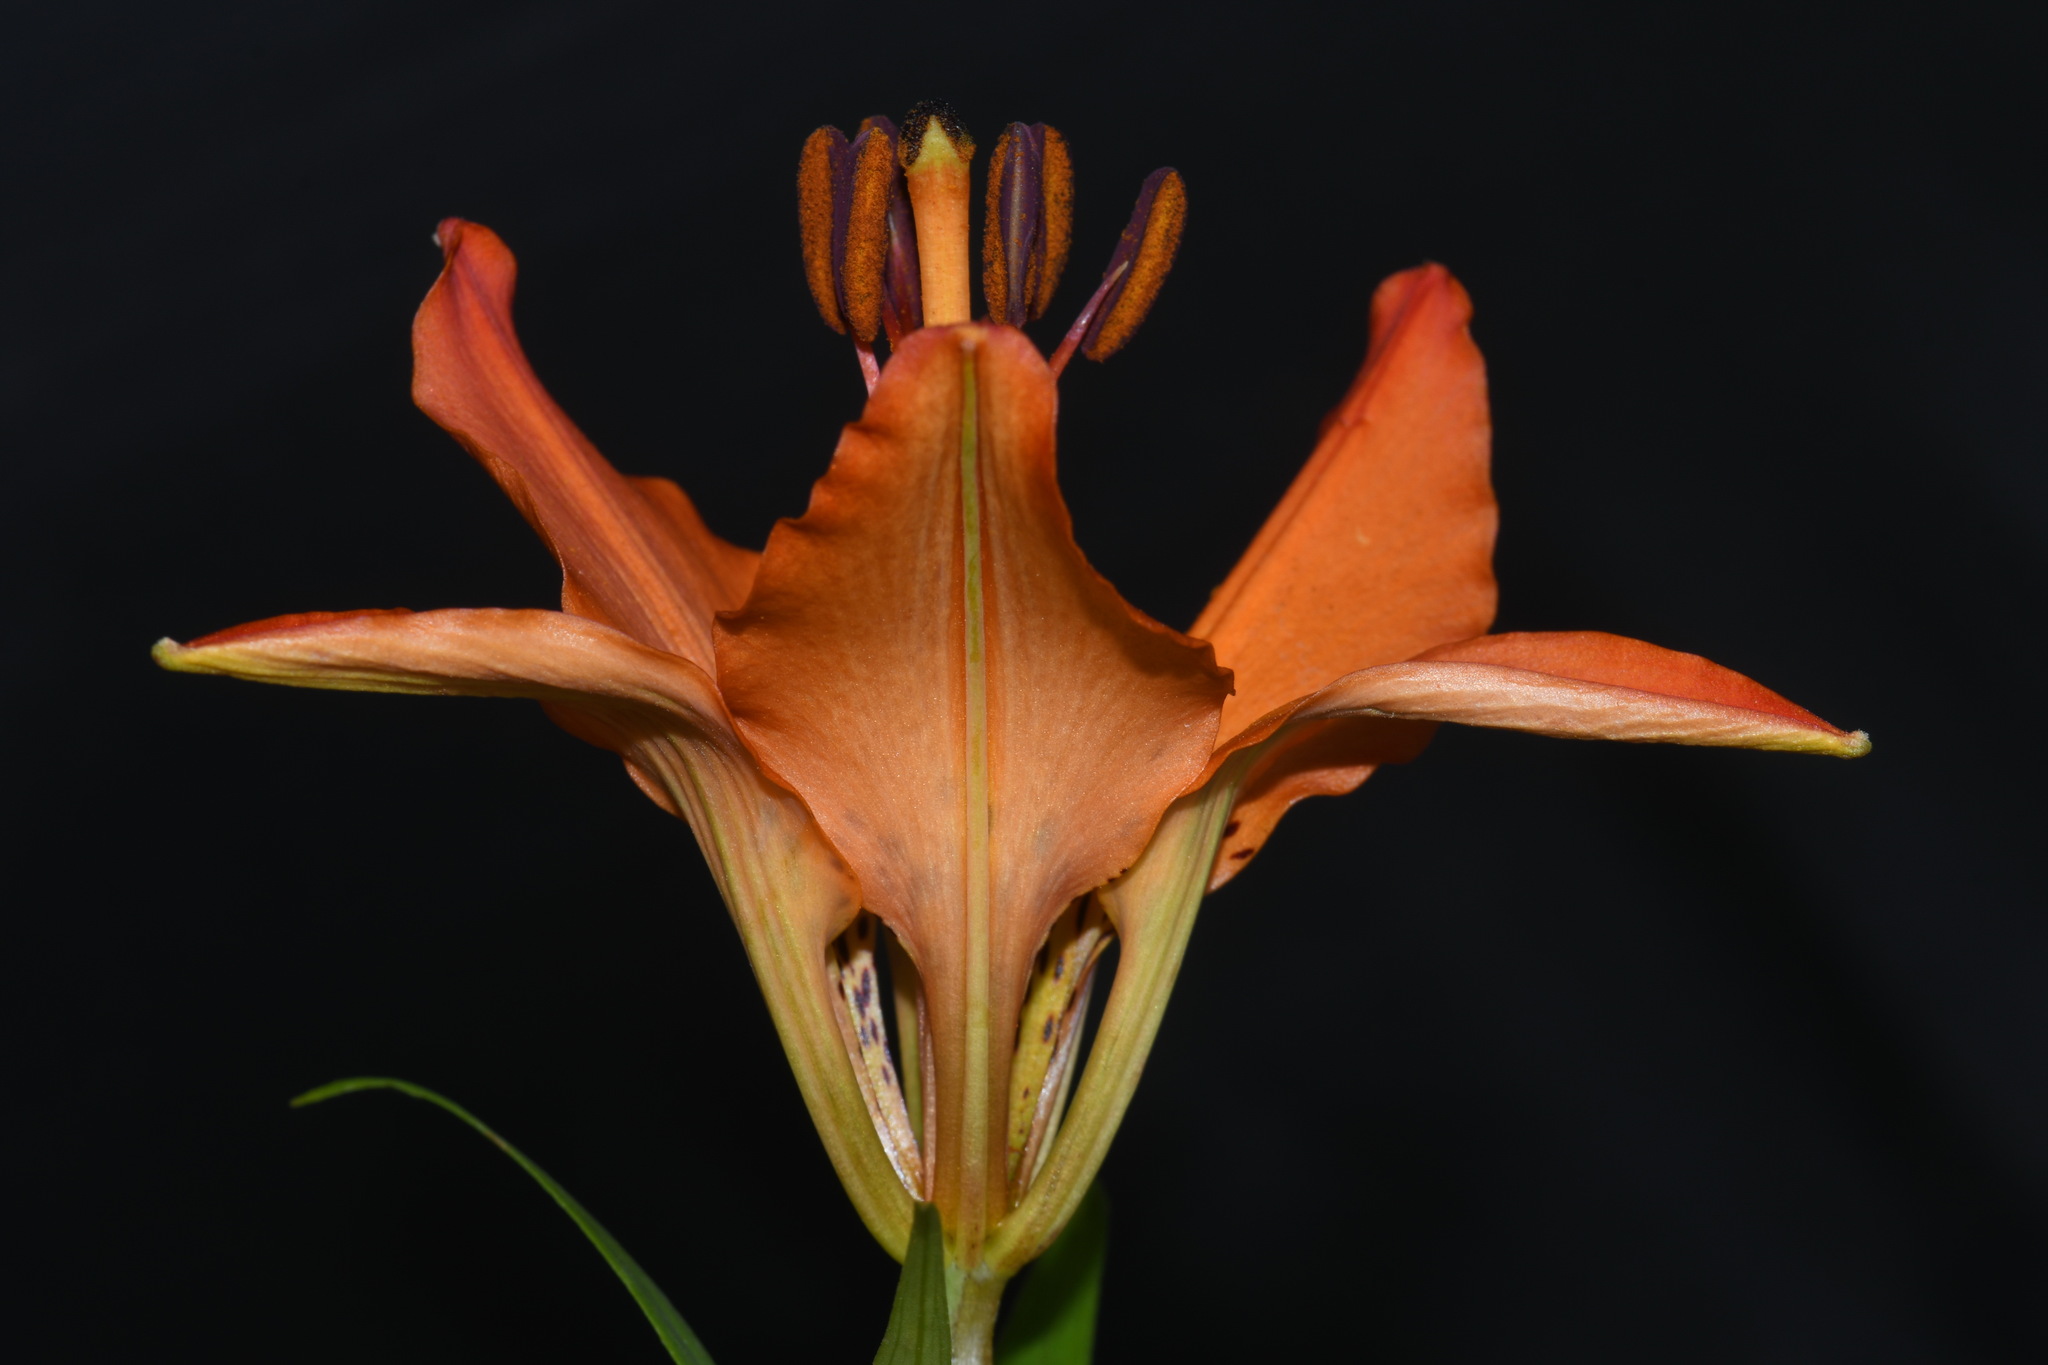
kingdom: Plantae
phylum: Tracheophyta
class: Liliopsida
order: Liliales
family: Liliaceae
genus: Lilium
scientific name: Lilium philadelphicum
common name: Red lily
